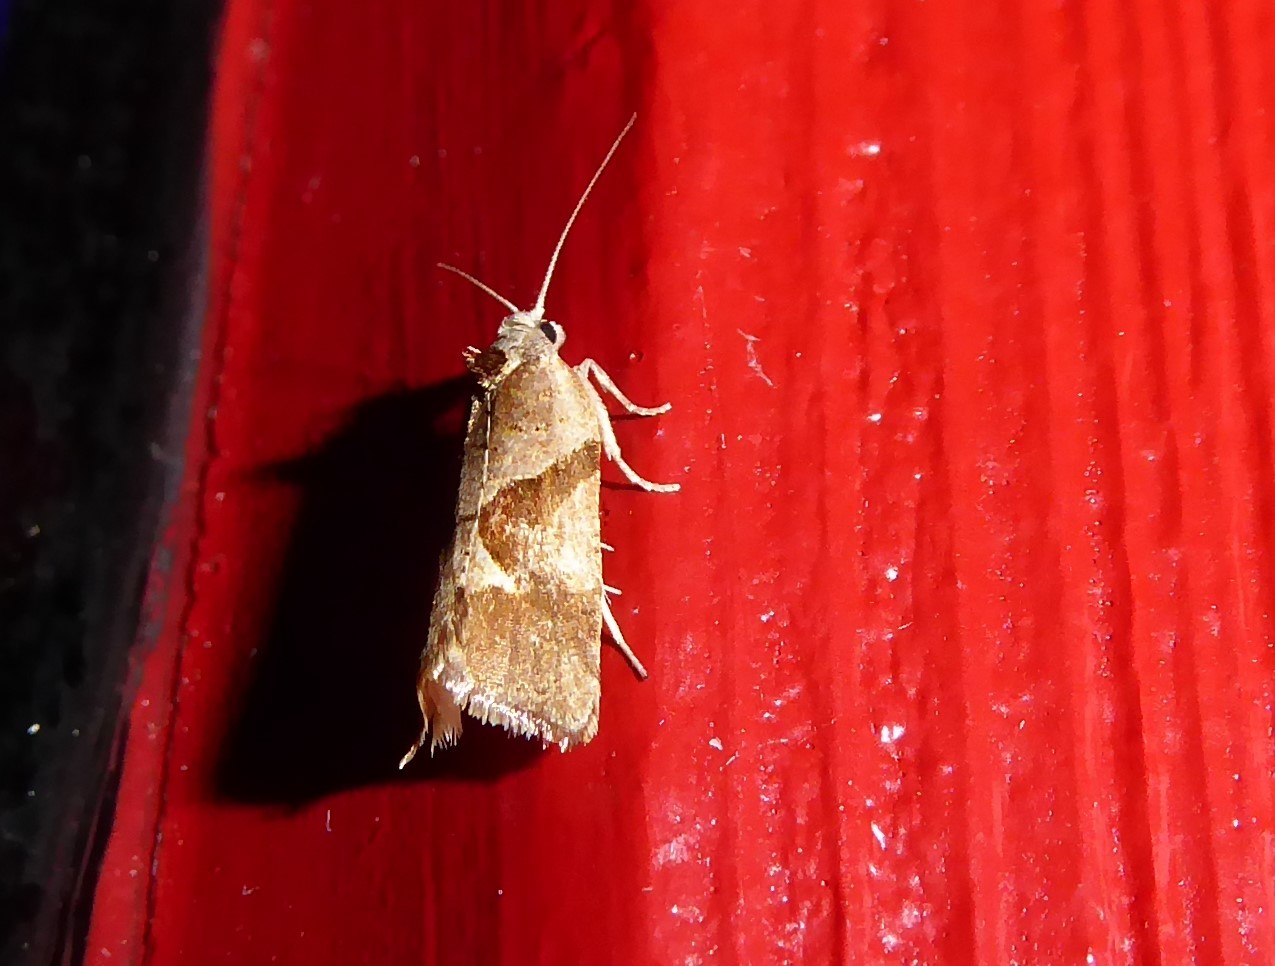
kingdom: Animalia
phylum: Arthropoda
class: Insecta
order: Lepidoptera
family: Tortricidae
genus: Pyrgotis
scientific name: Pyrgotis plagiatana
